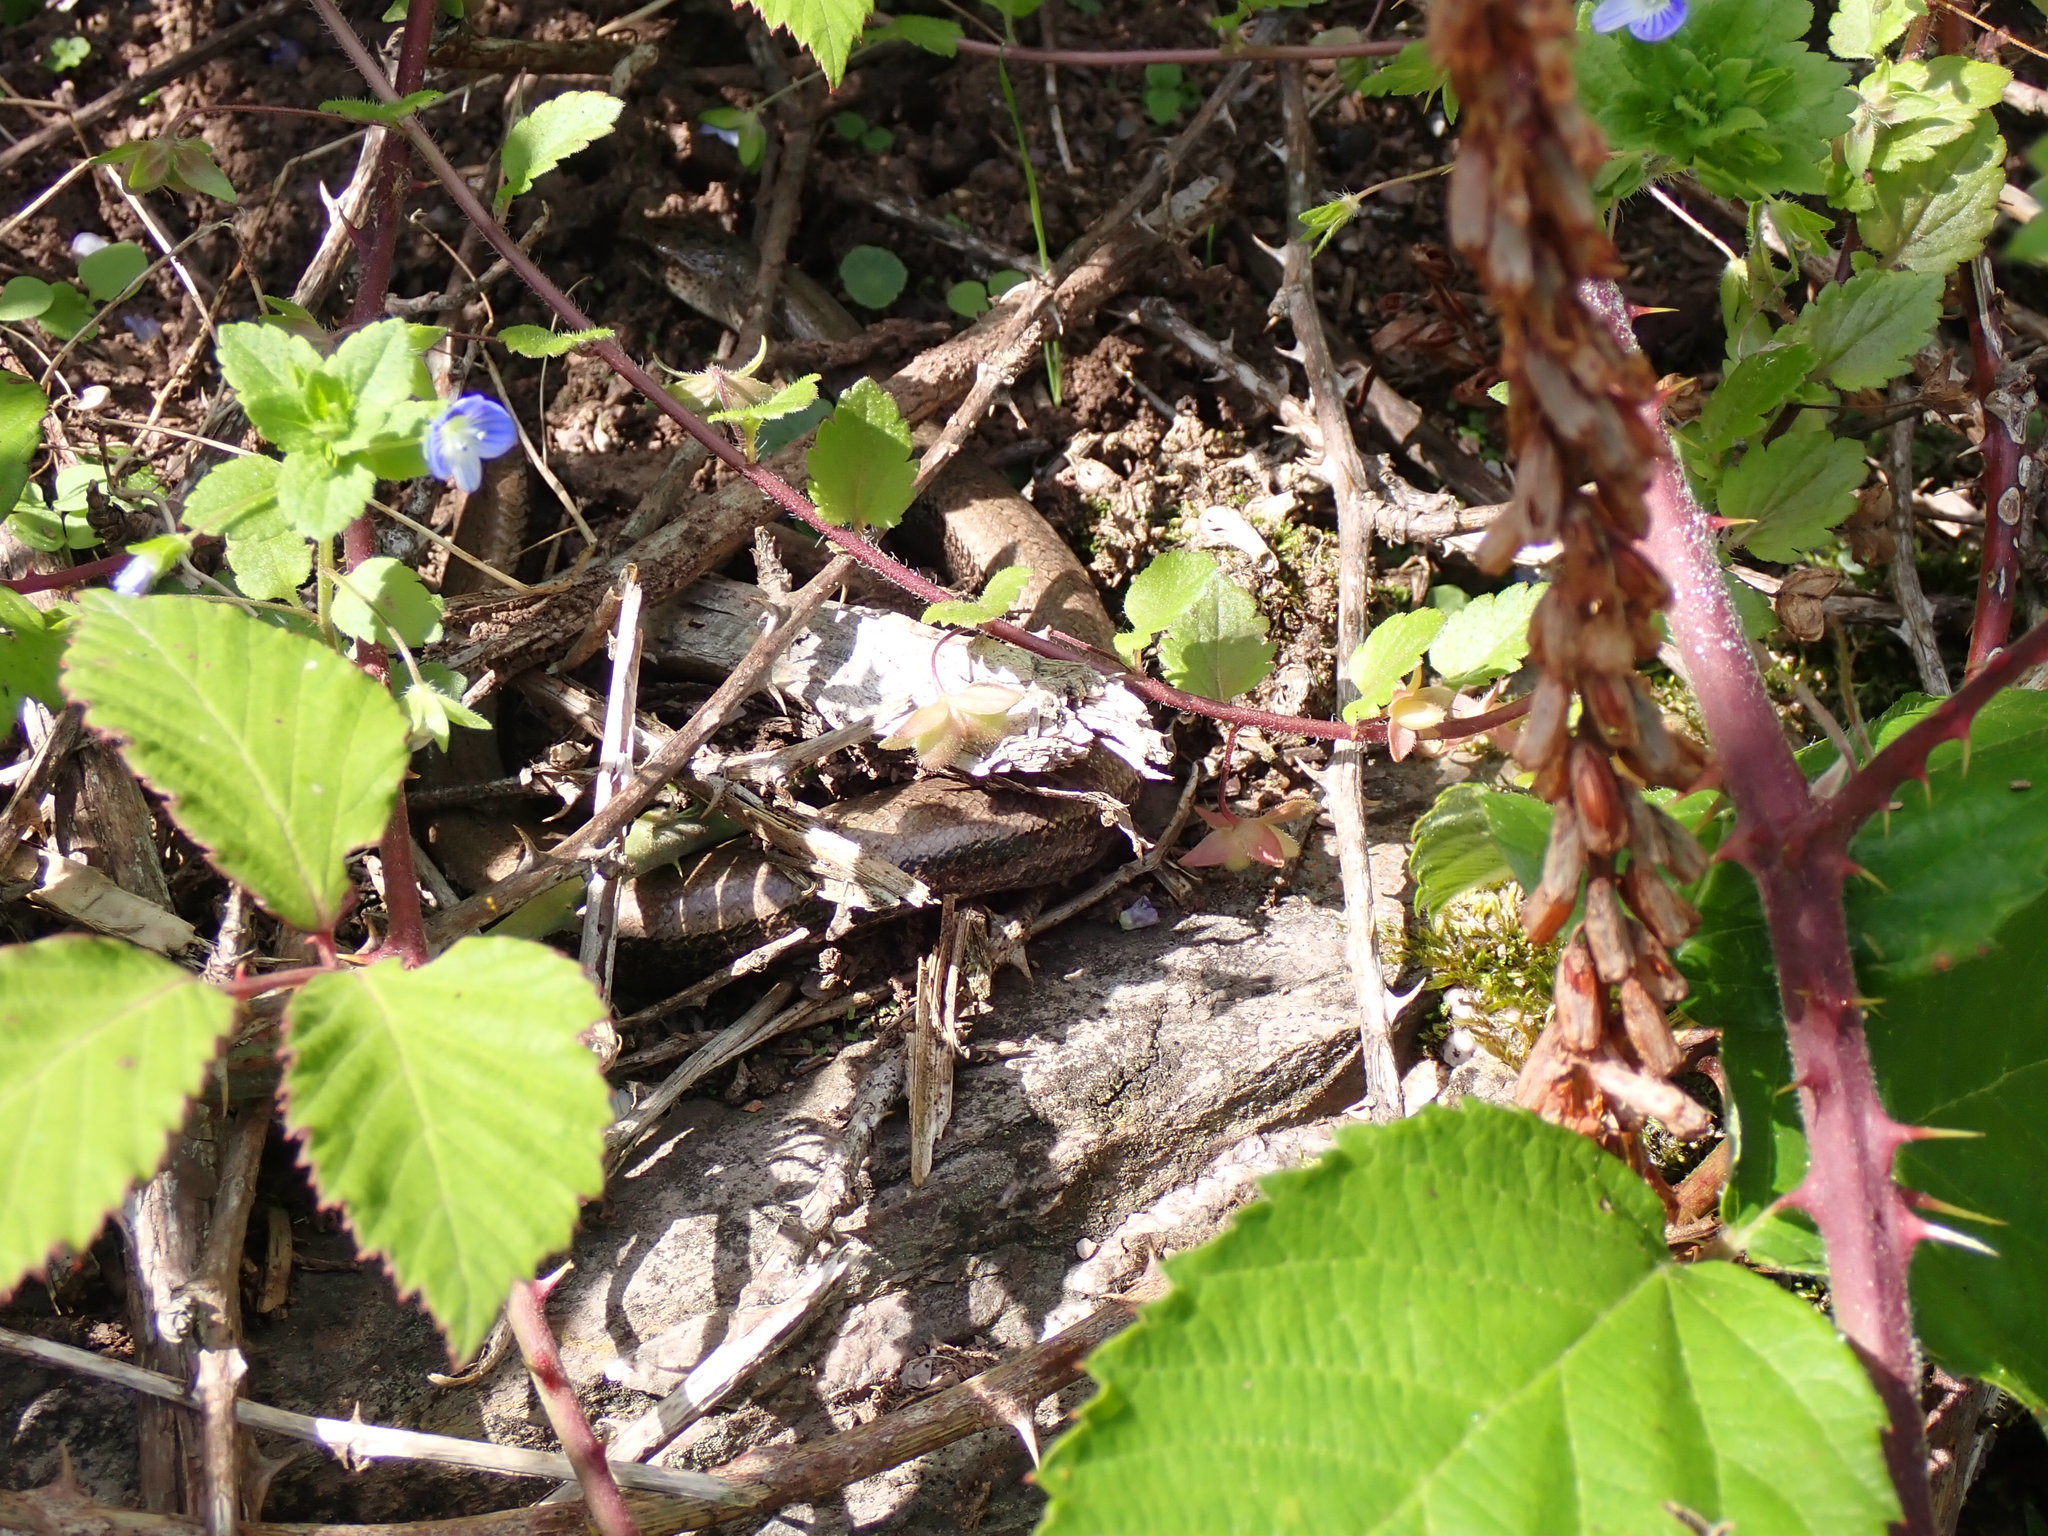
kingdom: Animalia
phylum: Chordata
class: Squamata
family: Anguidae
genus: Anguis
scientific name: Anguis fragilis
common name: Slow worm
